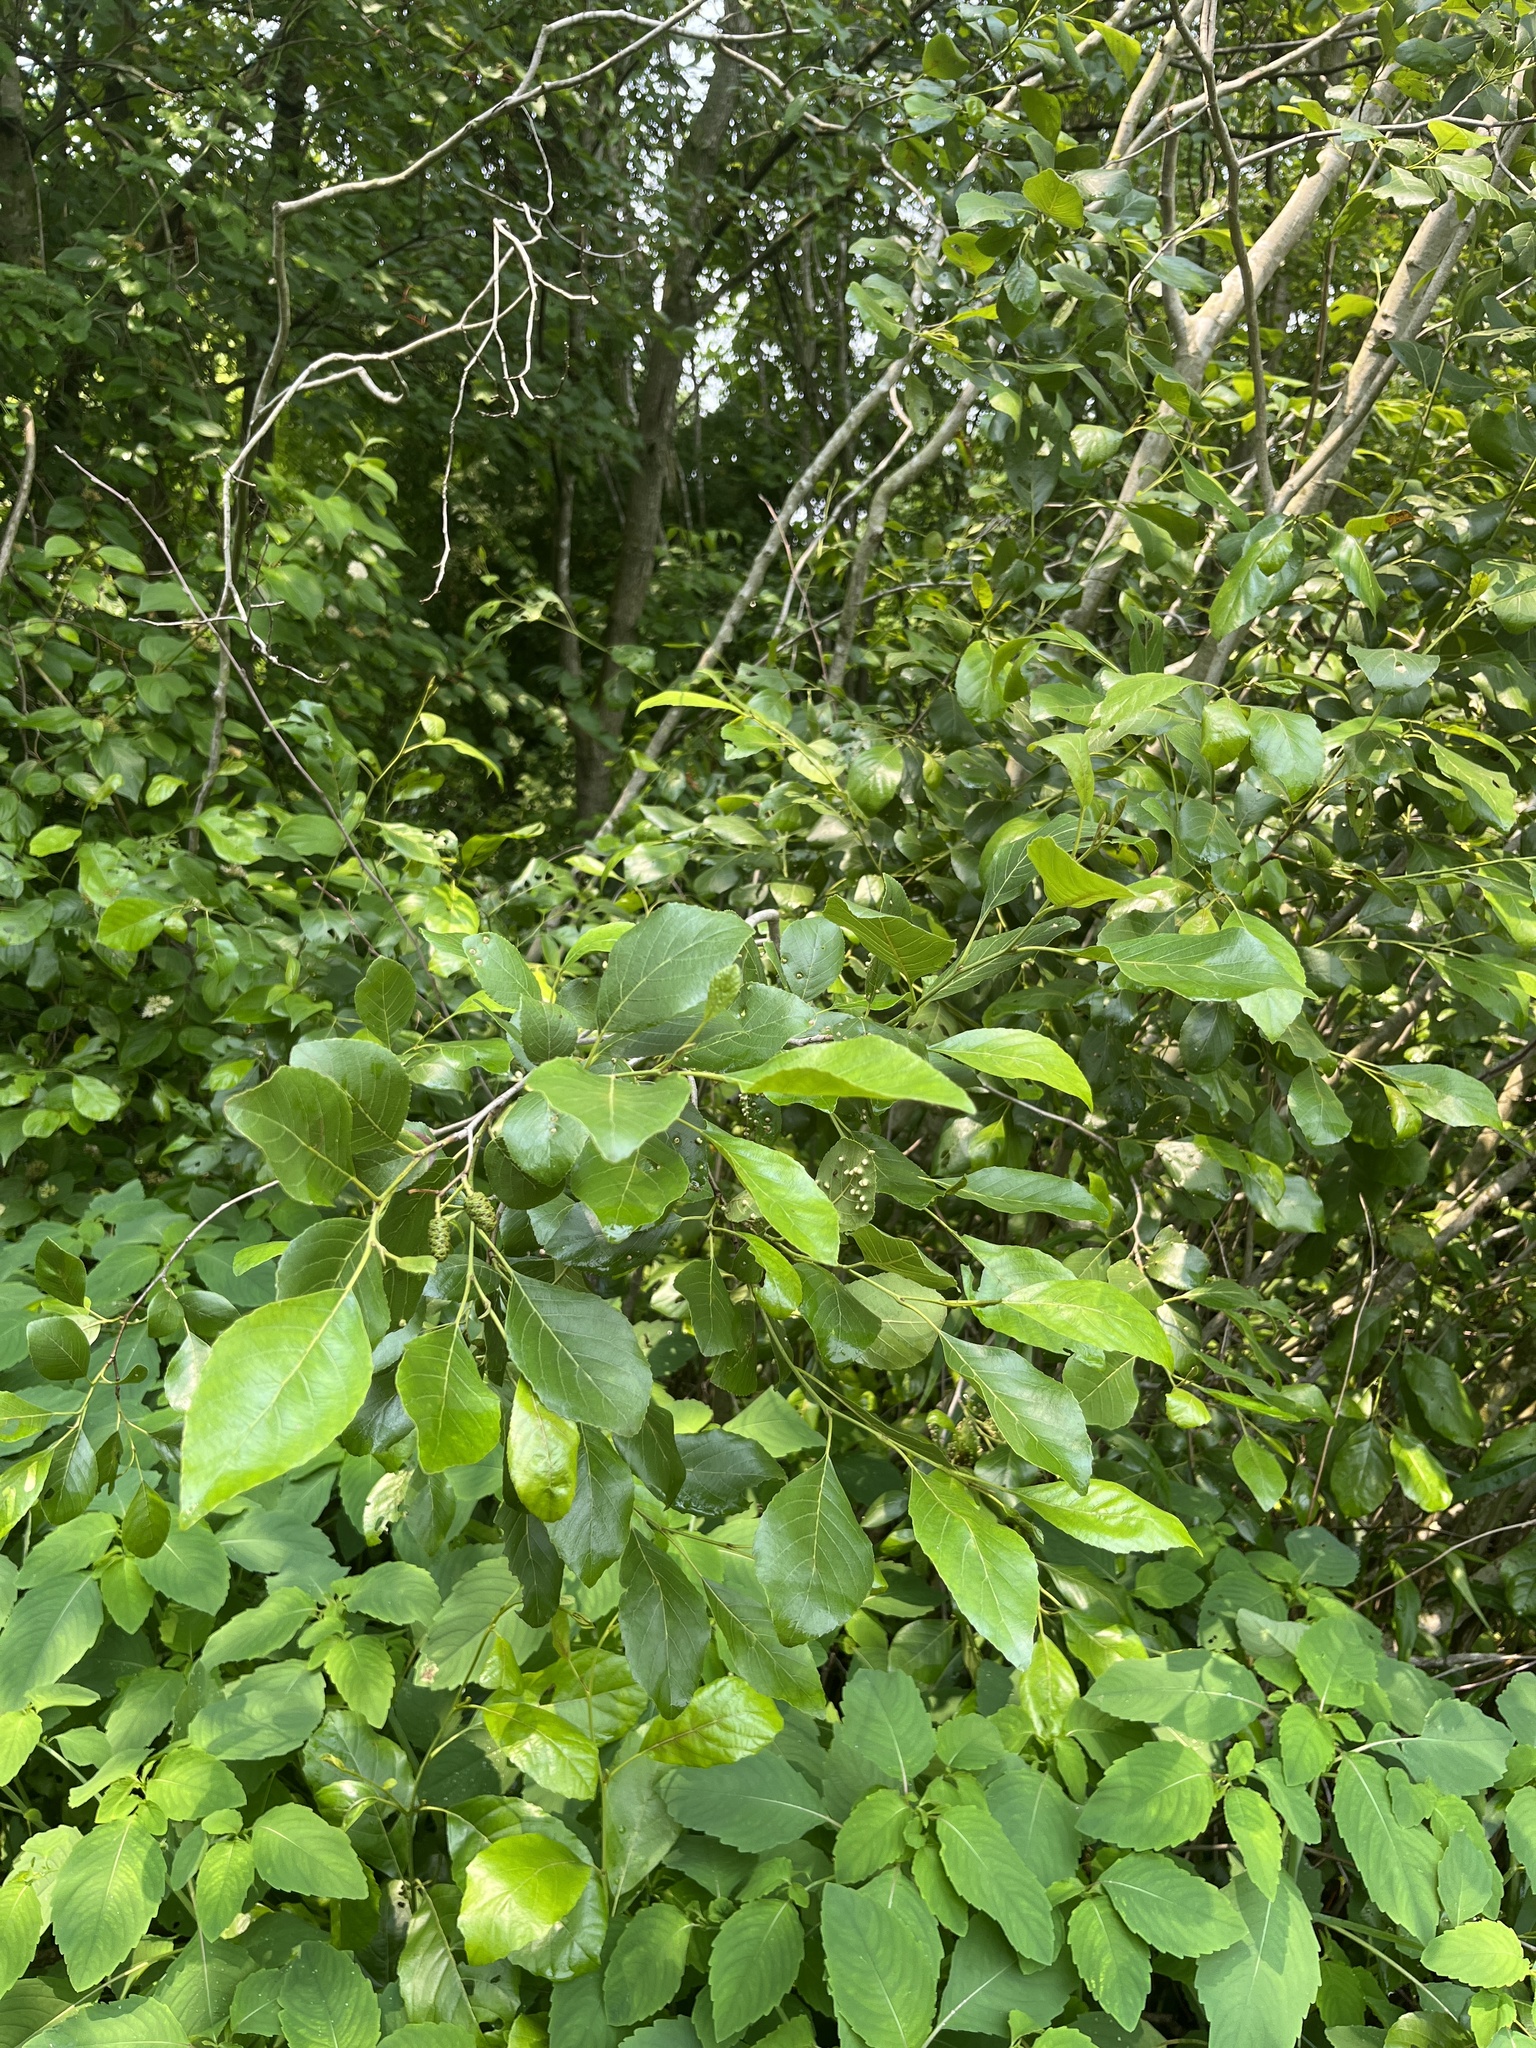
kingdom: Plantae
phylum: Tracheophyta
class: Magnoliopsida
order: Fagales
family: Betulaceae
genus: Alnus
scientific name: Alnus maritima
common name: Seaside alder
